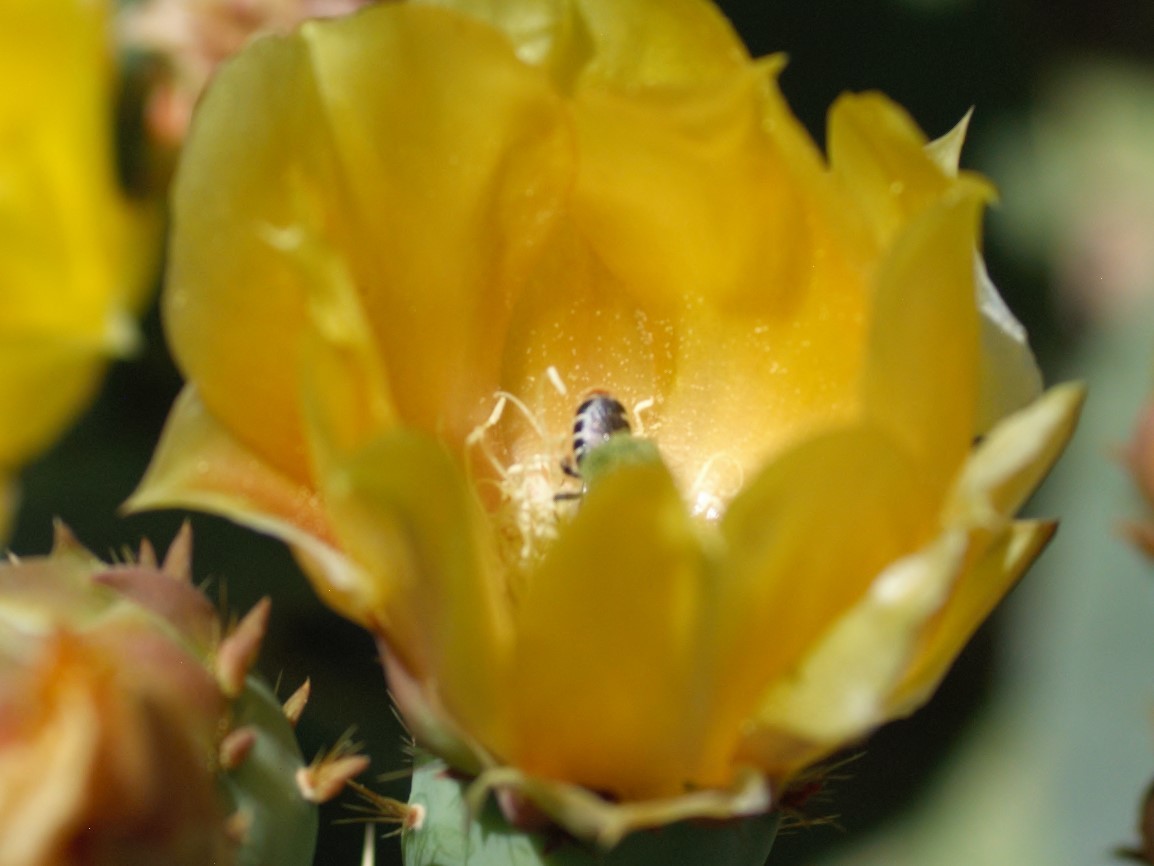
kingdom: Animalia
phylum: Arthropoda
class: Insecta
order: Hymenoptera
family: Megachilidae
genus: Lithurgopsis
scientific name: Lithurgopsis apicalis
